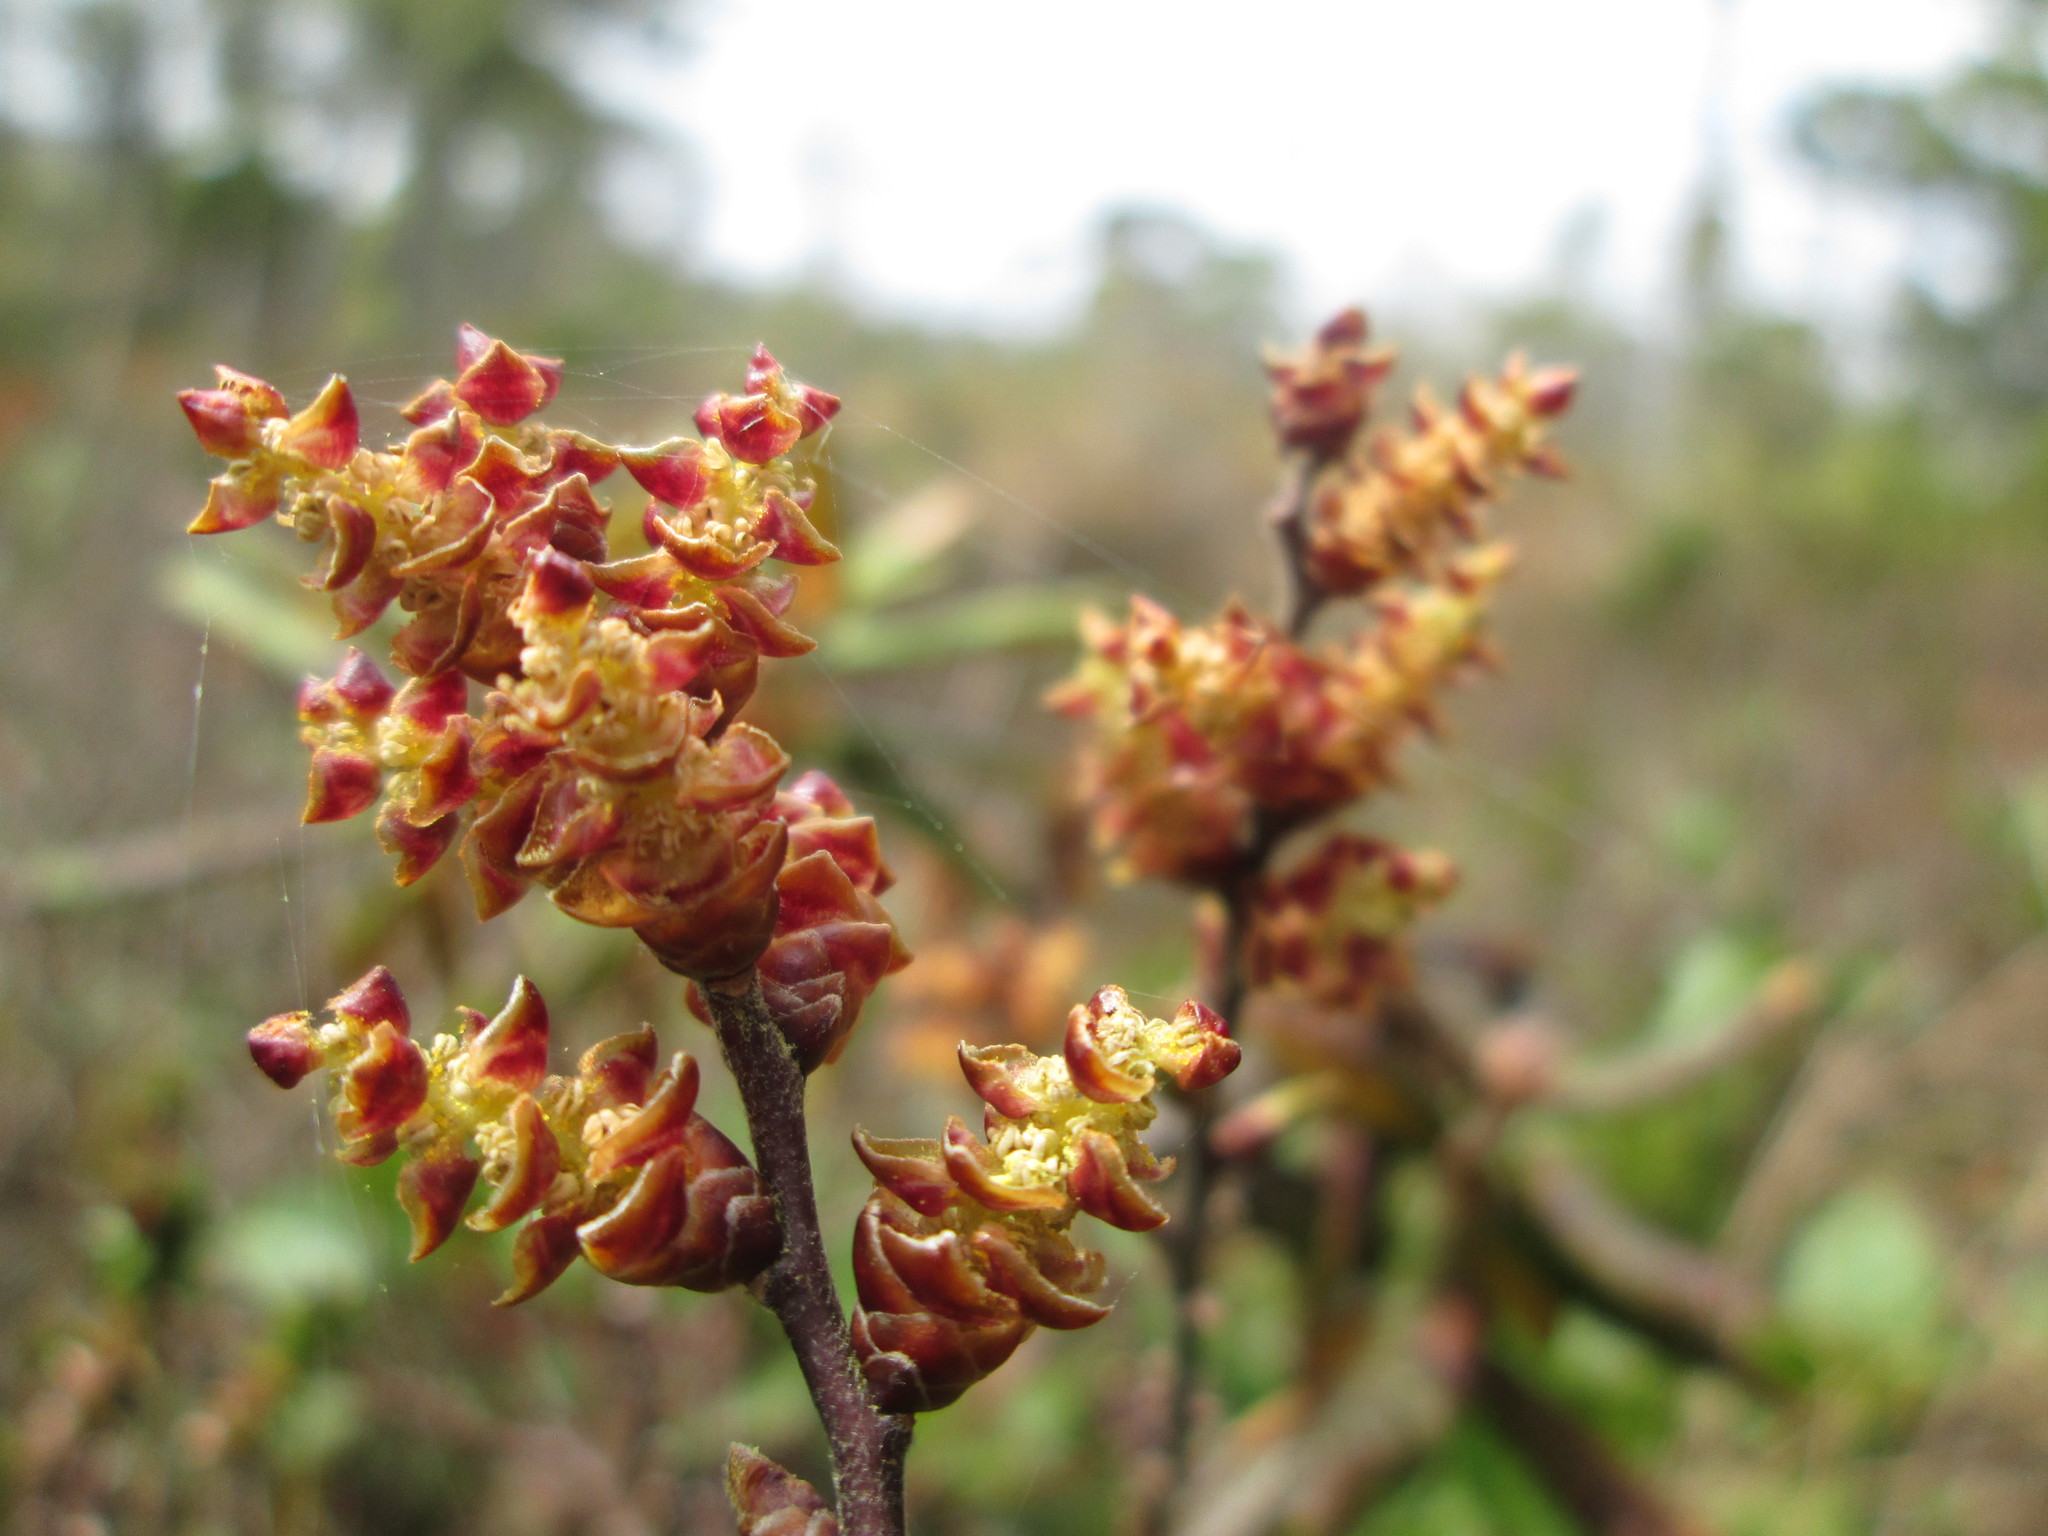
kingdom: Plantae
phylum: Tracheophyta
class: Magnoliopsida
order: Fagales
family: Myricaceae
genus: Myrica
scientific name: Myrica gale
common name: Sweet gale
